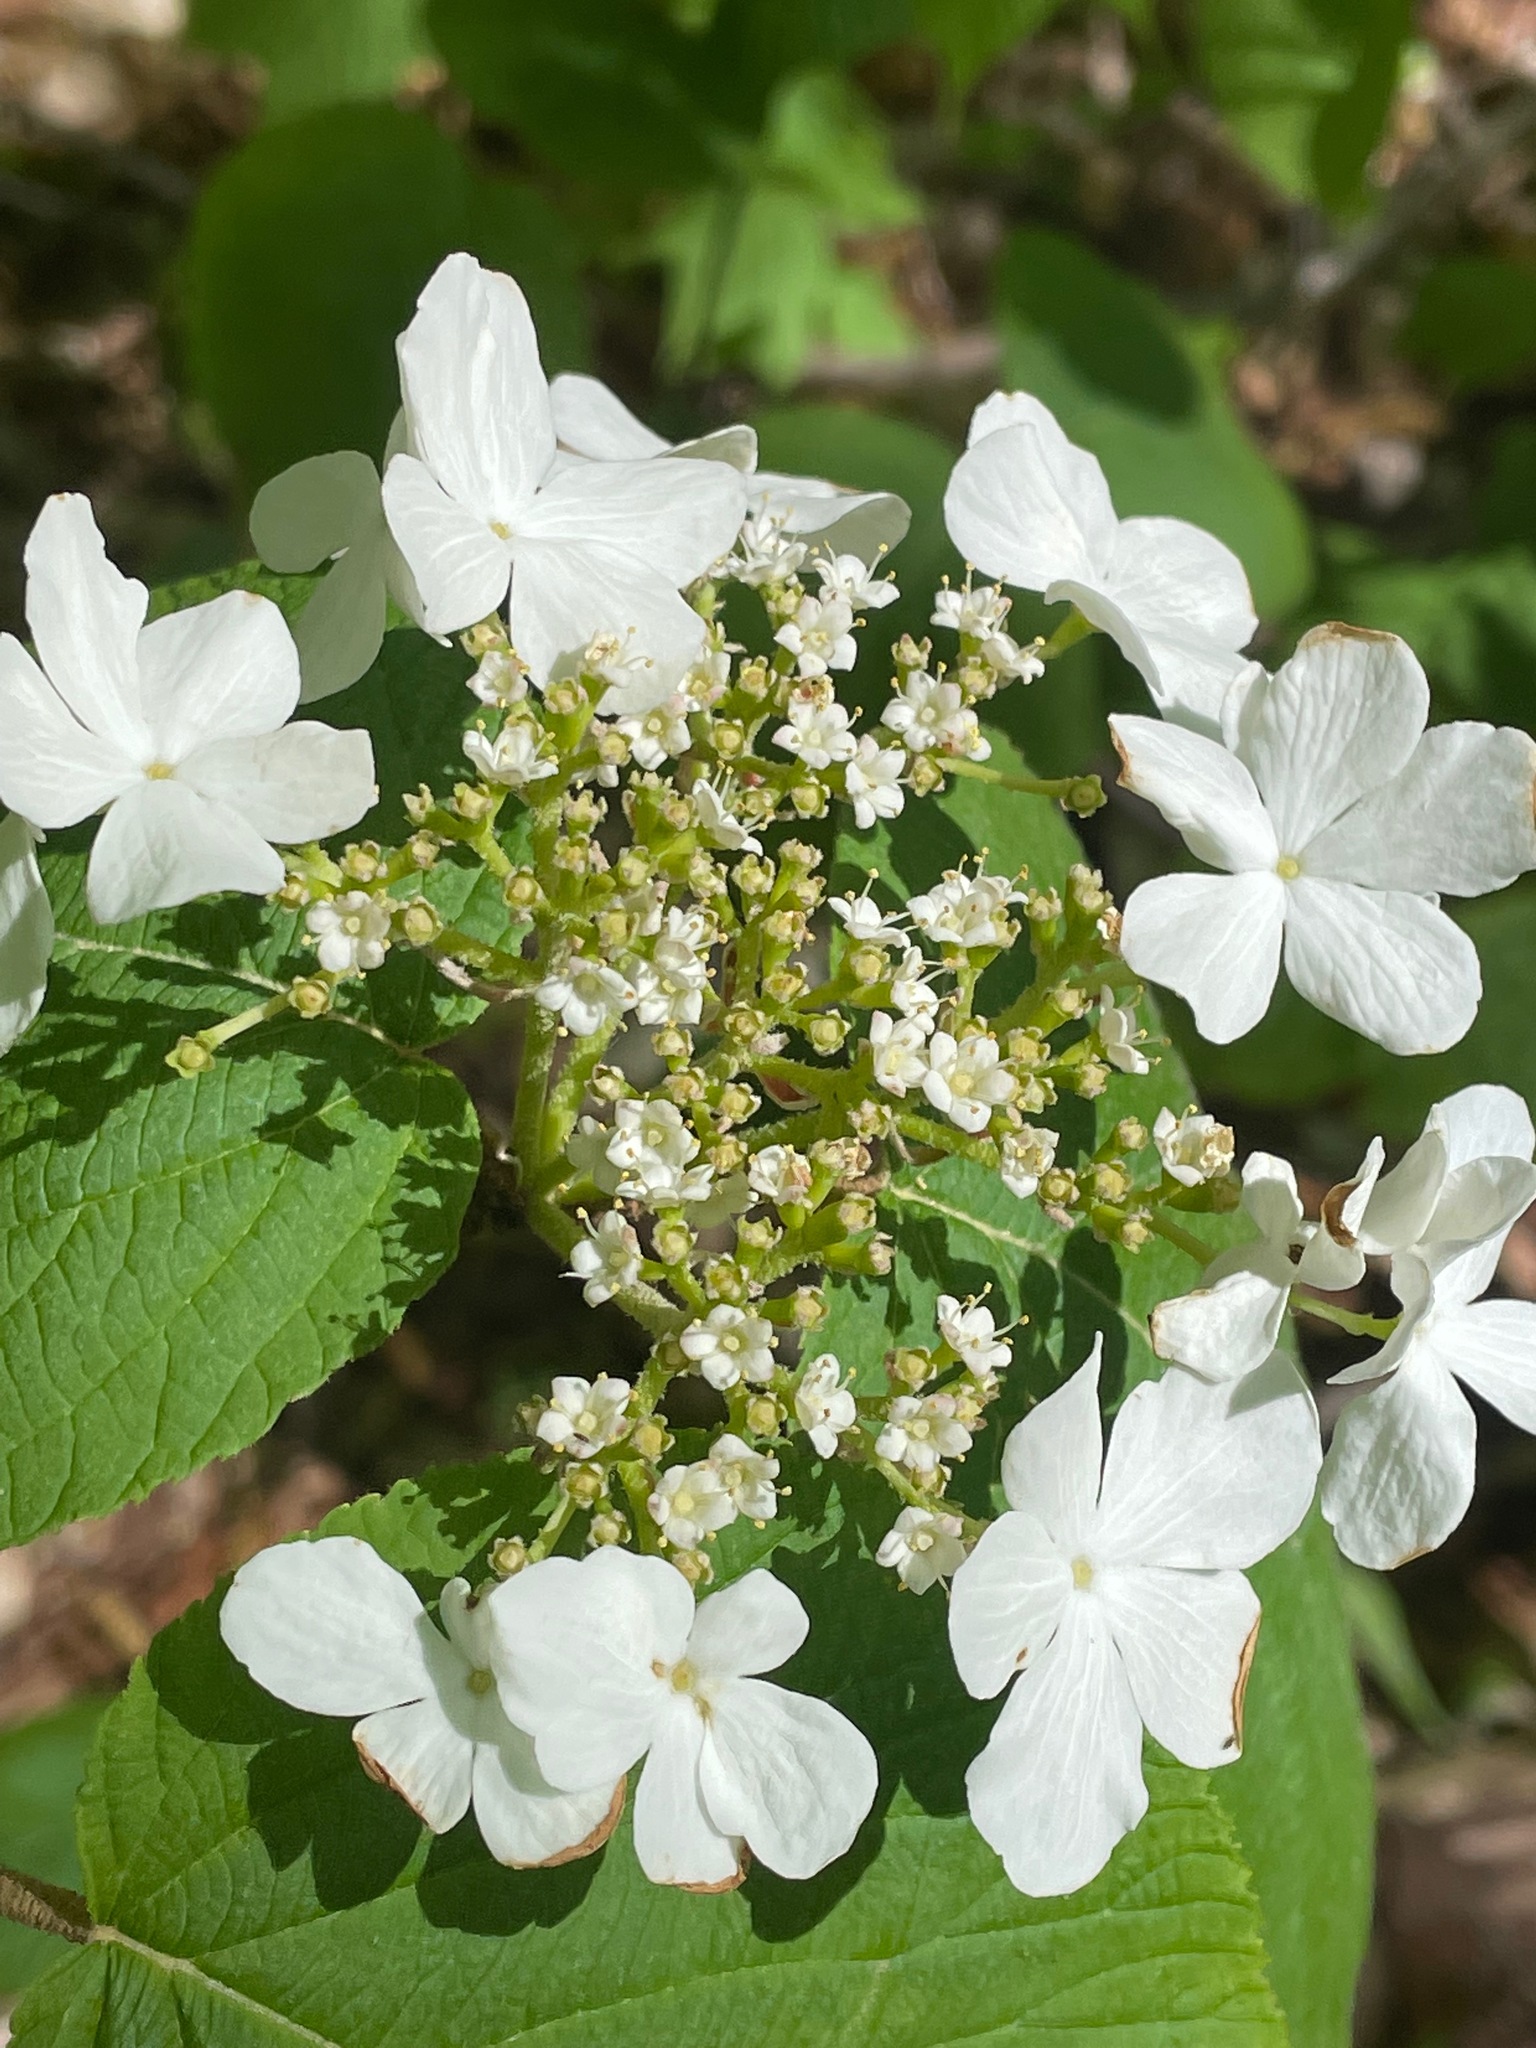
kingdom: Plantae
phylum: Tracheophyta
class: Magnoliopsida
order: Dipsacales
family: Viburnaceae
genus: Viburnum
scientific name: Viburnum lantanoides
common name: Hobblebush
